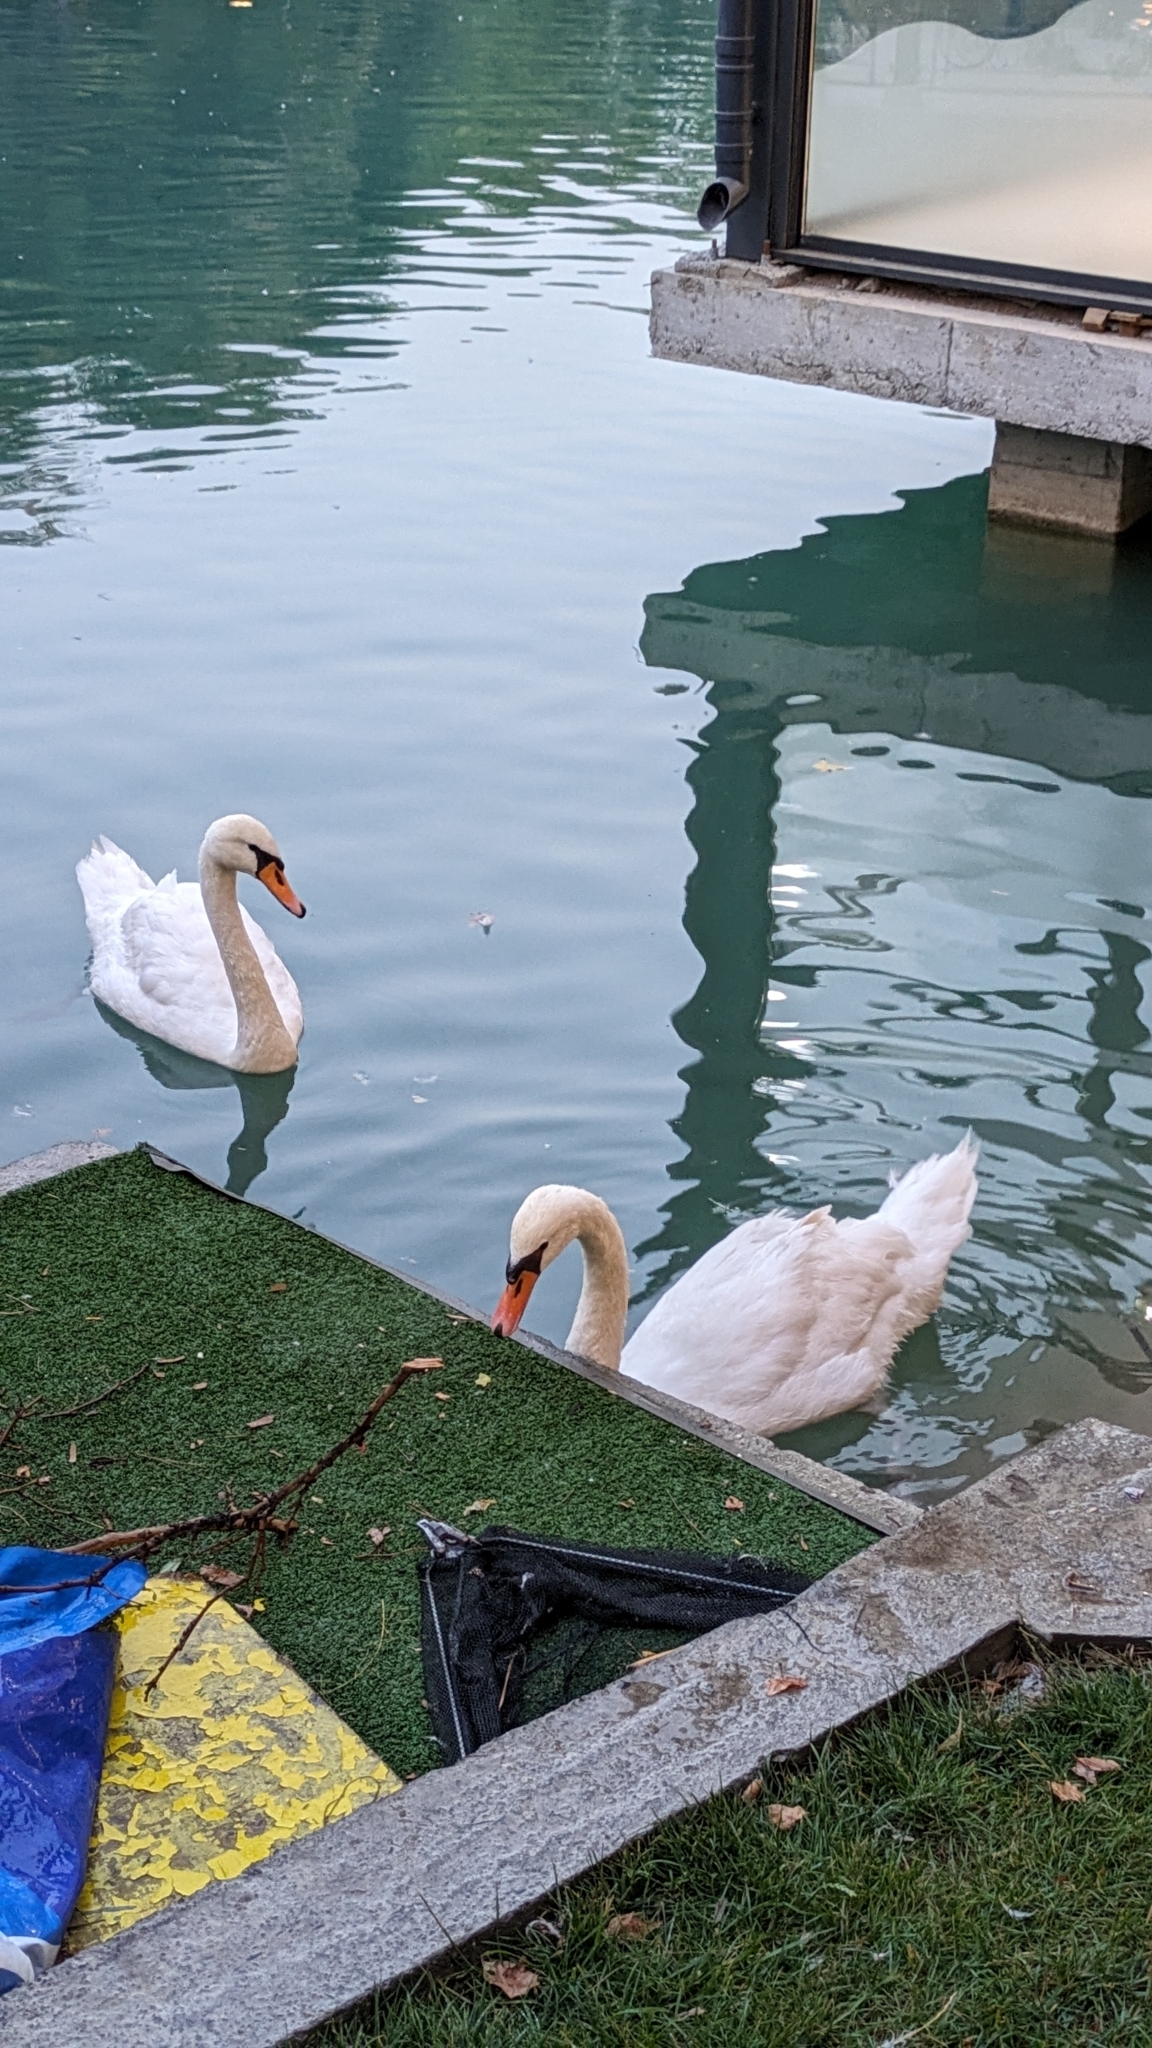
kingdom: Animalia
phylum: Chordata
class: Aves
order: Anseriformes
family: Anatidae
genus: Cygnus
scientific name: Cygnus olor
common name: Mute swan
